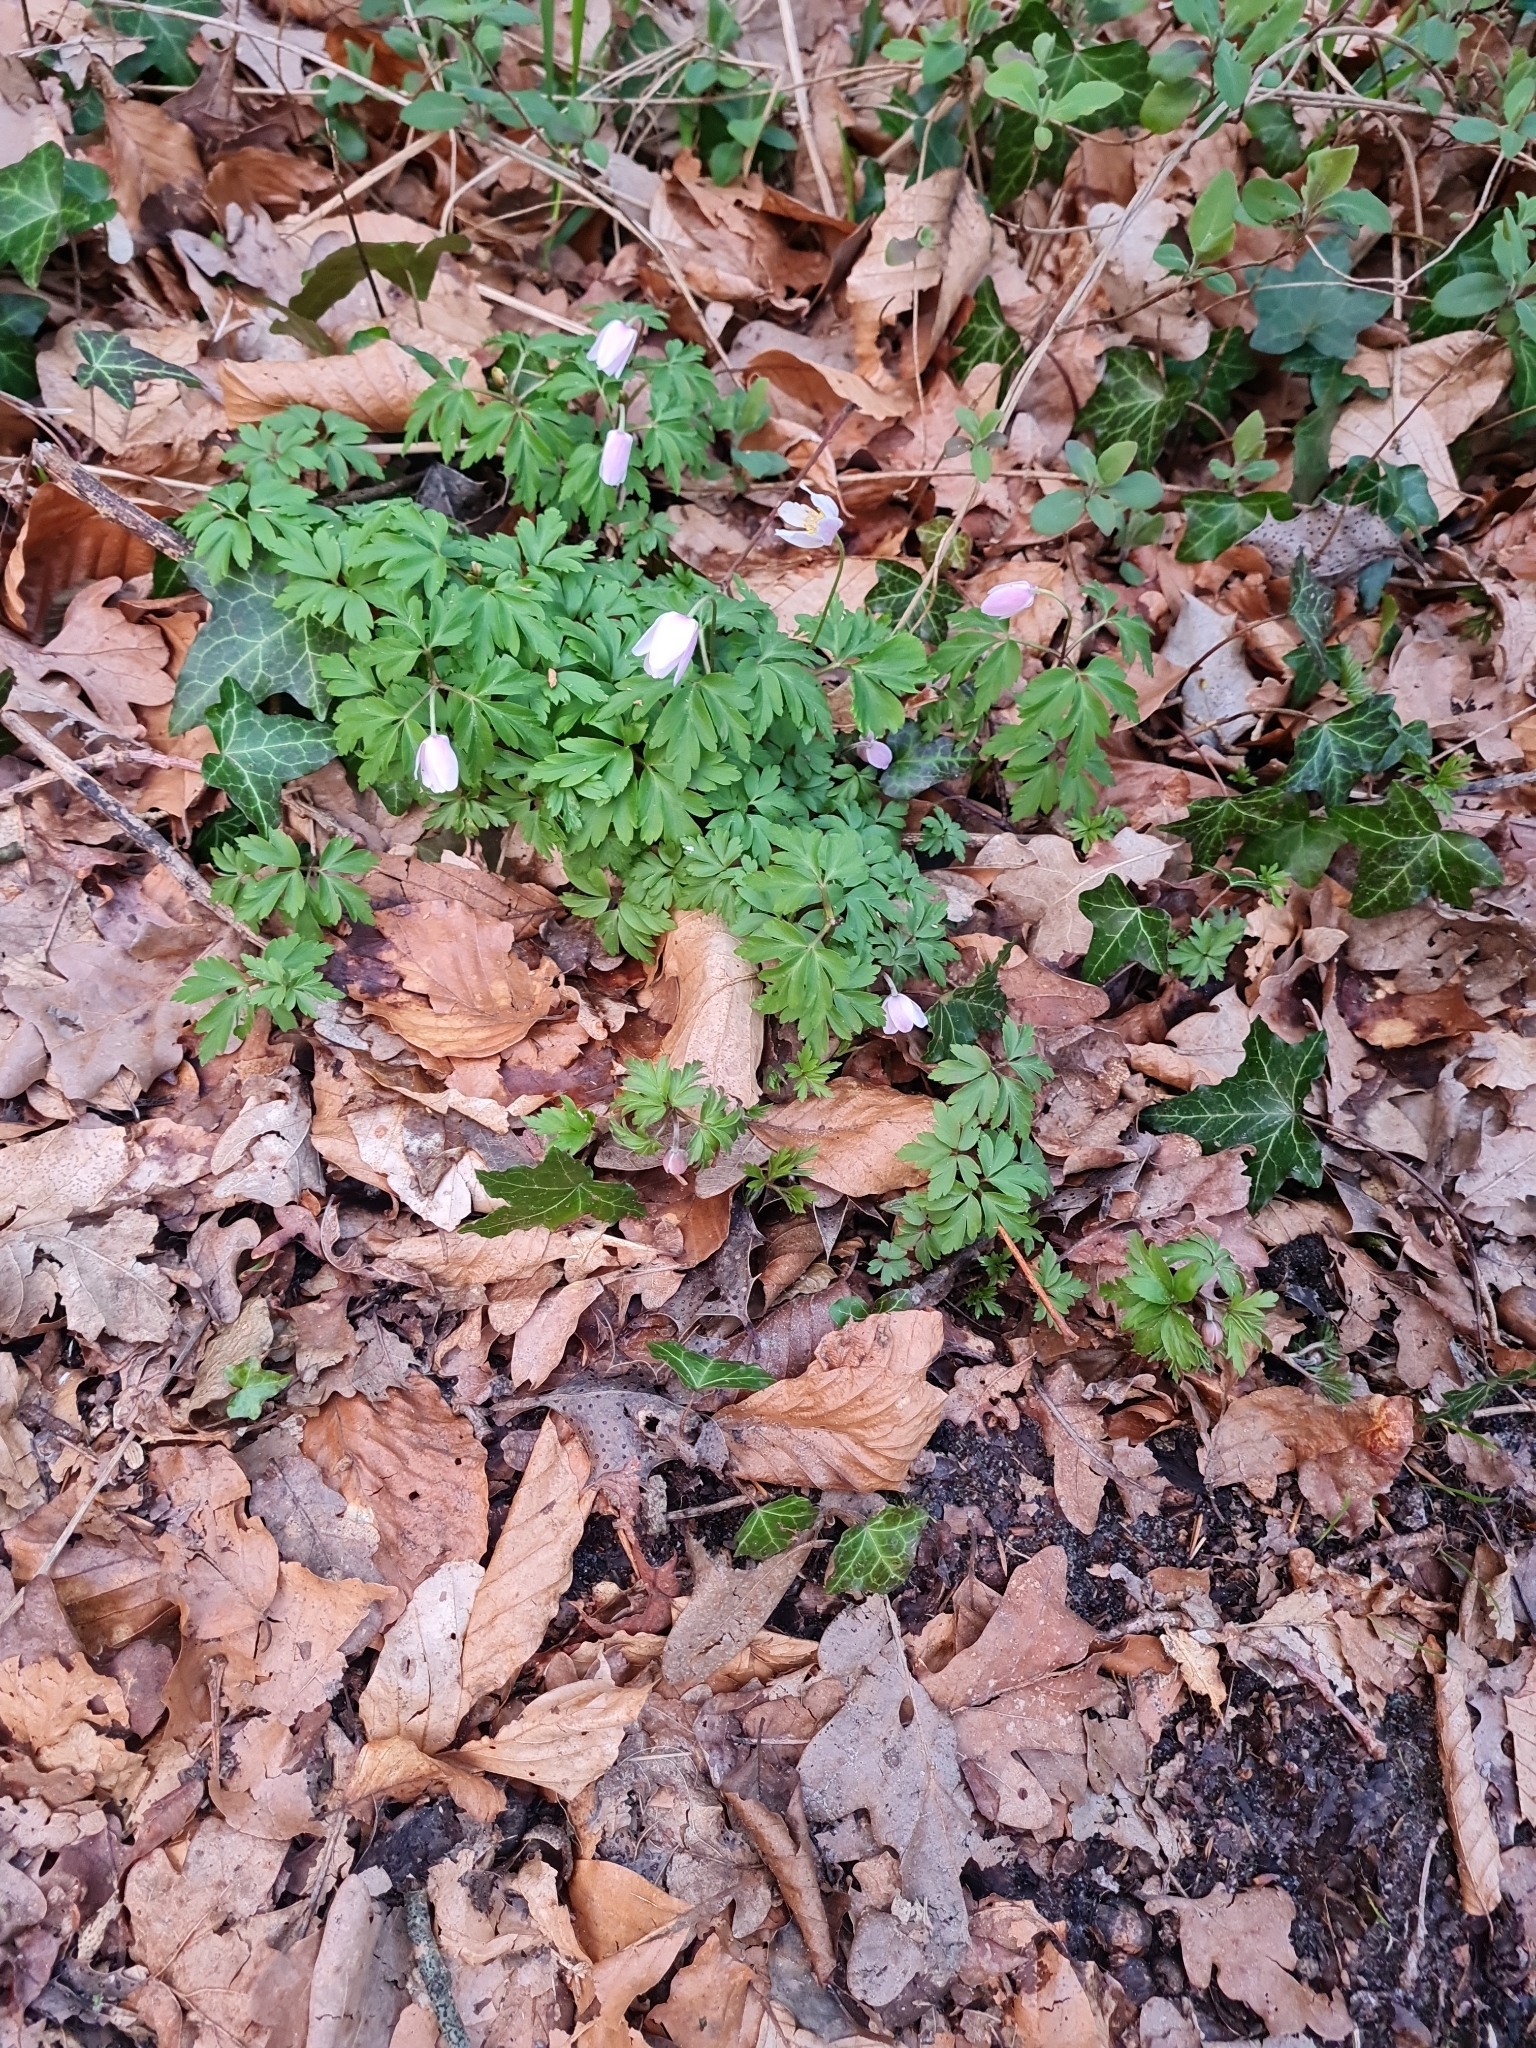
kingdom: Plantae
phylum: Tracheophyta
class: Magnoliopsida
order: Ranunculales
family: Ranunculaceae
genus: Anemone
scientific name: Anemone nemorosa
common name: Wood anemone
